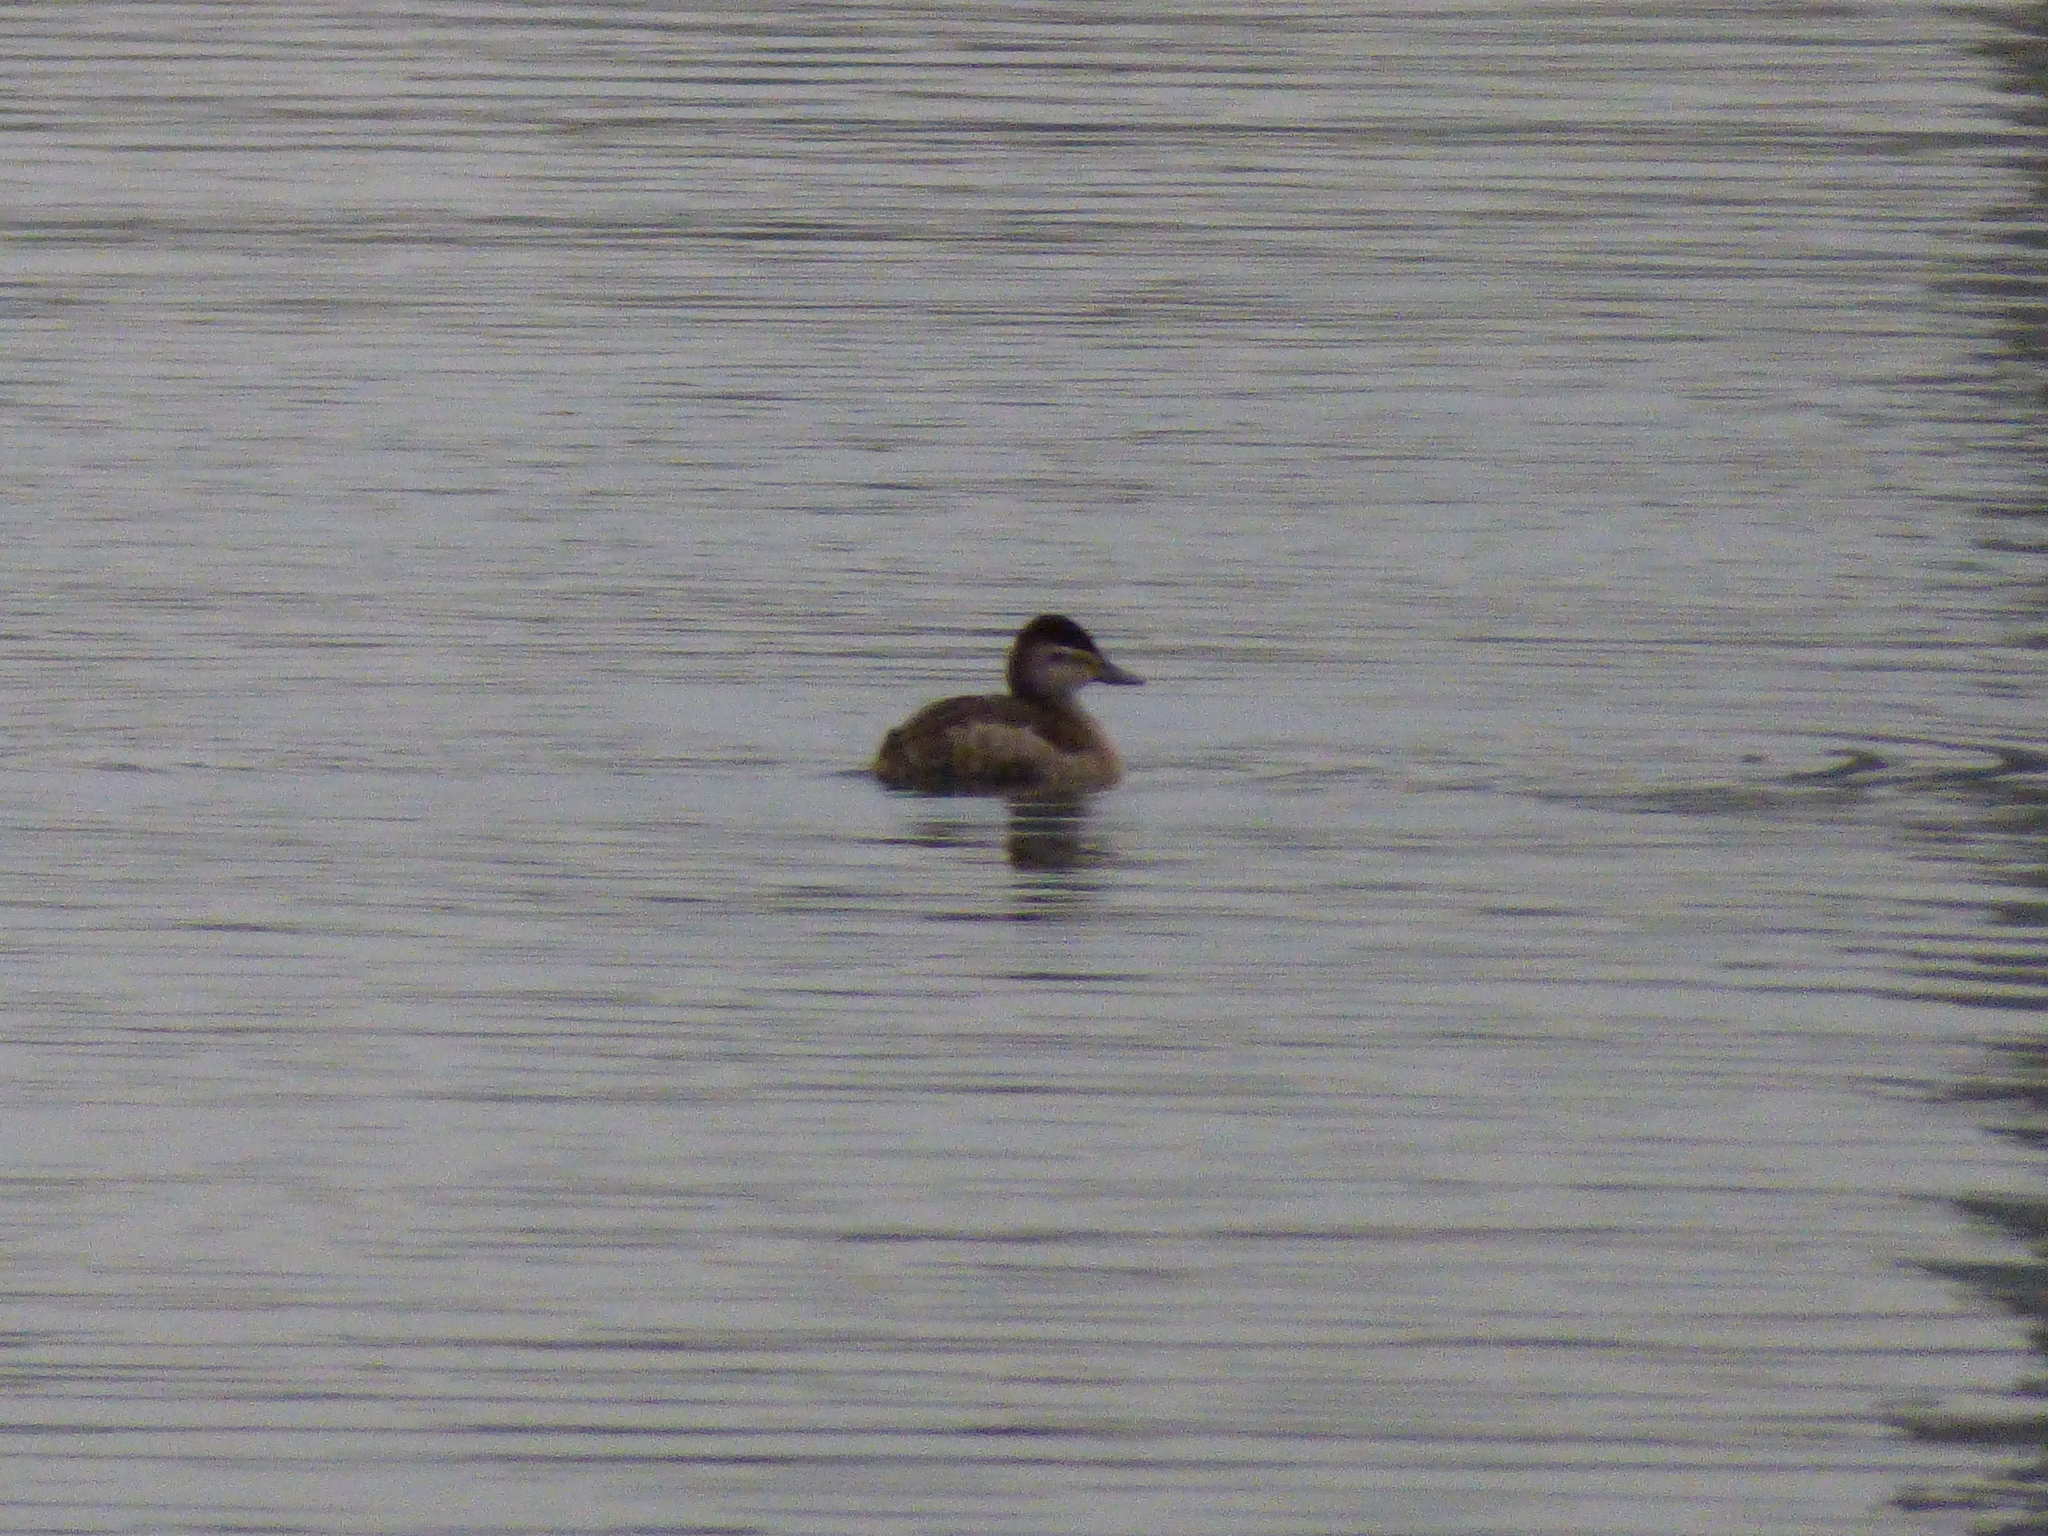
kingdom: Animalia
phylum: Chordata
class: Aves
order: Anseriformes
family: Anatidae
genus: Oxyura
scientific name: Oxyura jamaicensis
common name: Ruddy duck
